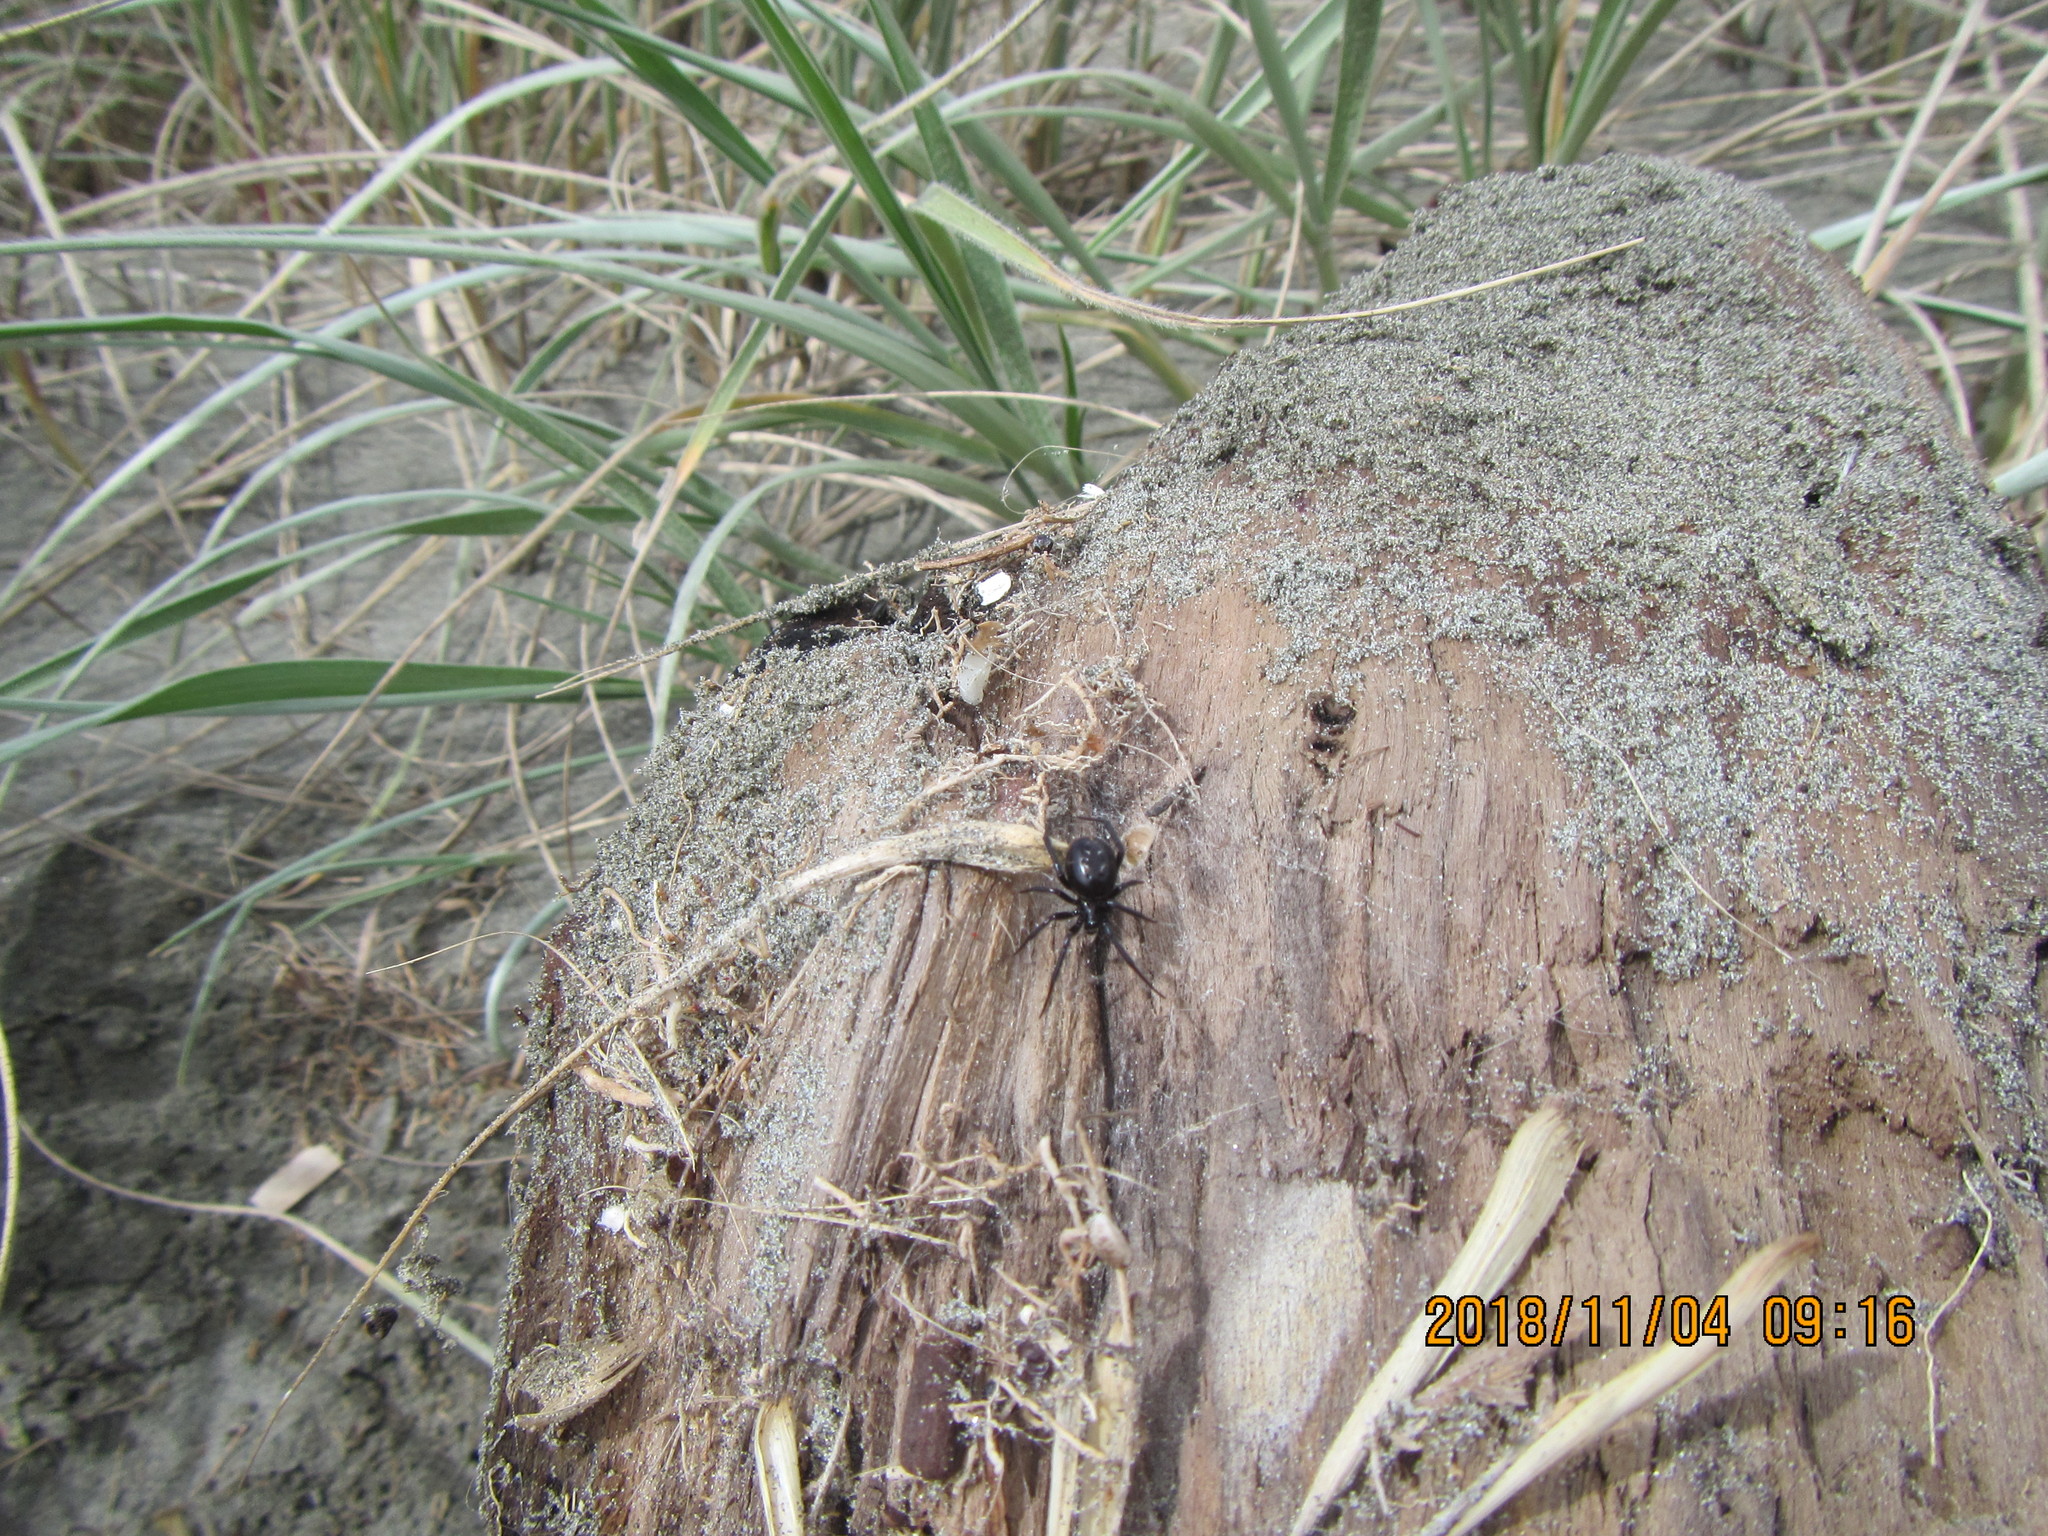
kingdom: Animalia
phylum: Arthropoda
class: Arachnida
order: Araneae
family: Theridiidae
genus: Steatoda
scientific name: Steatoda capensis
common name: Cobweb weaver
